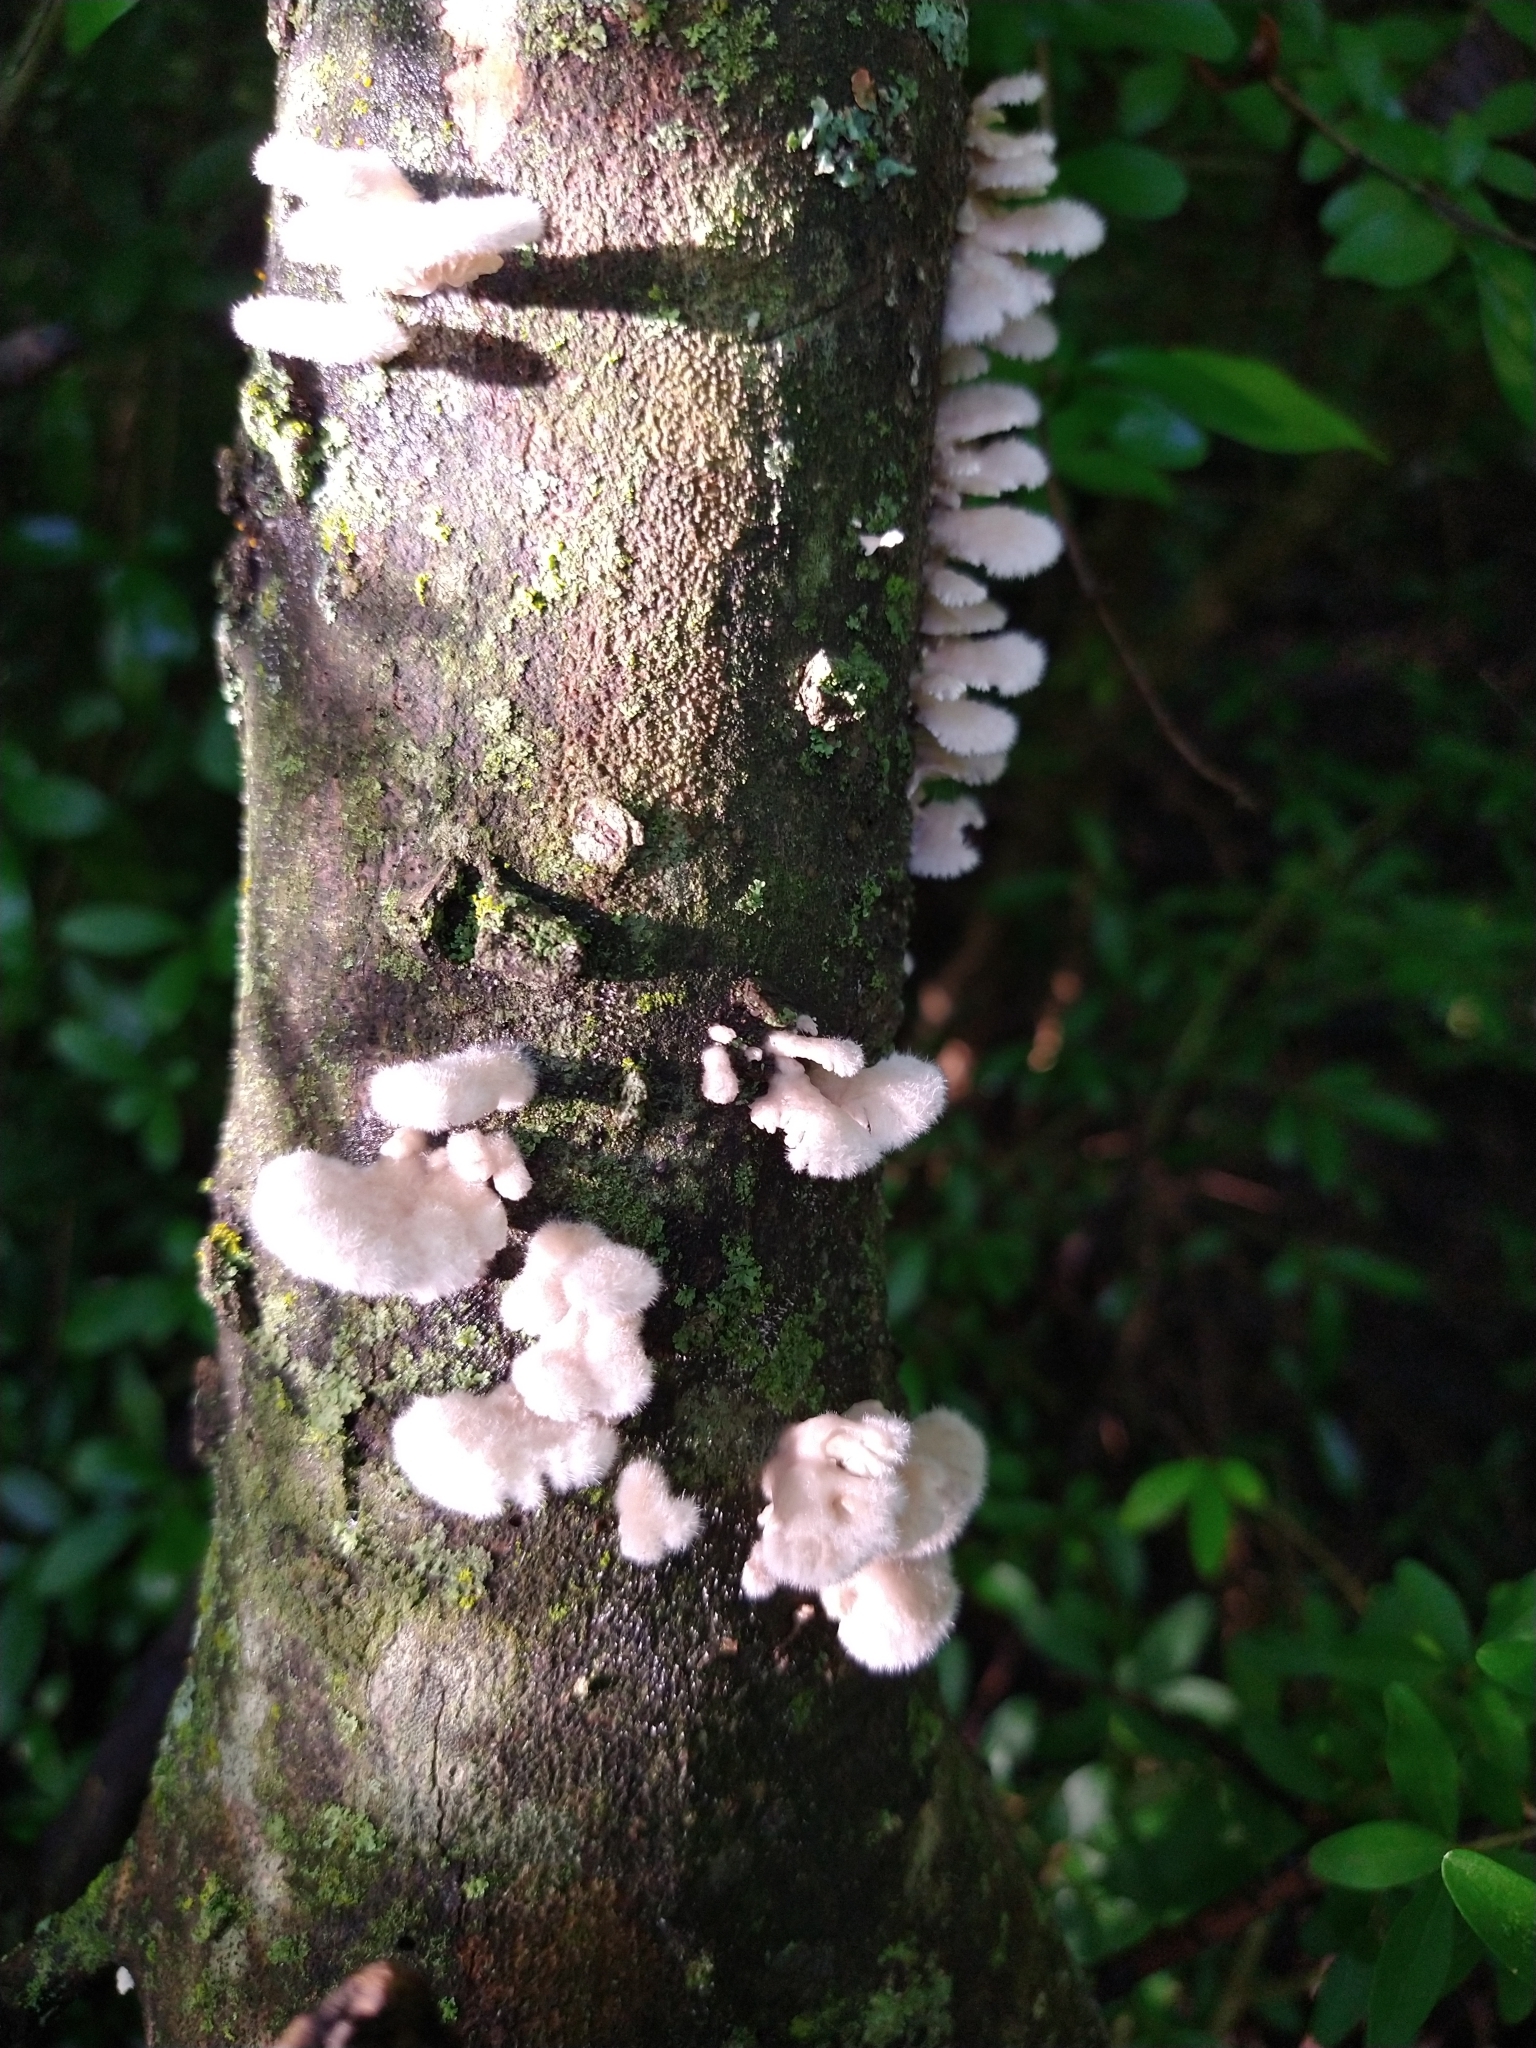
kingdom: Fungi
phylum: Basidiomycota
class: Agaricomycetes
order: Agaricales
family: Schizophyllaceae
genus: Schizophyllum
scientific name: Schizophyllum commune
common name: Common porecrust
